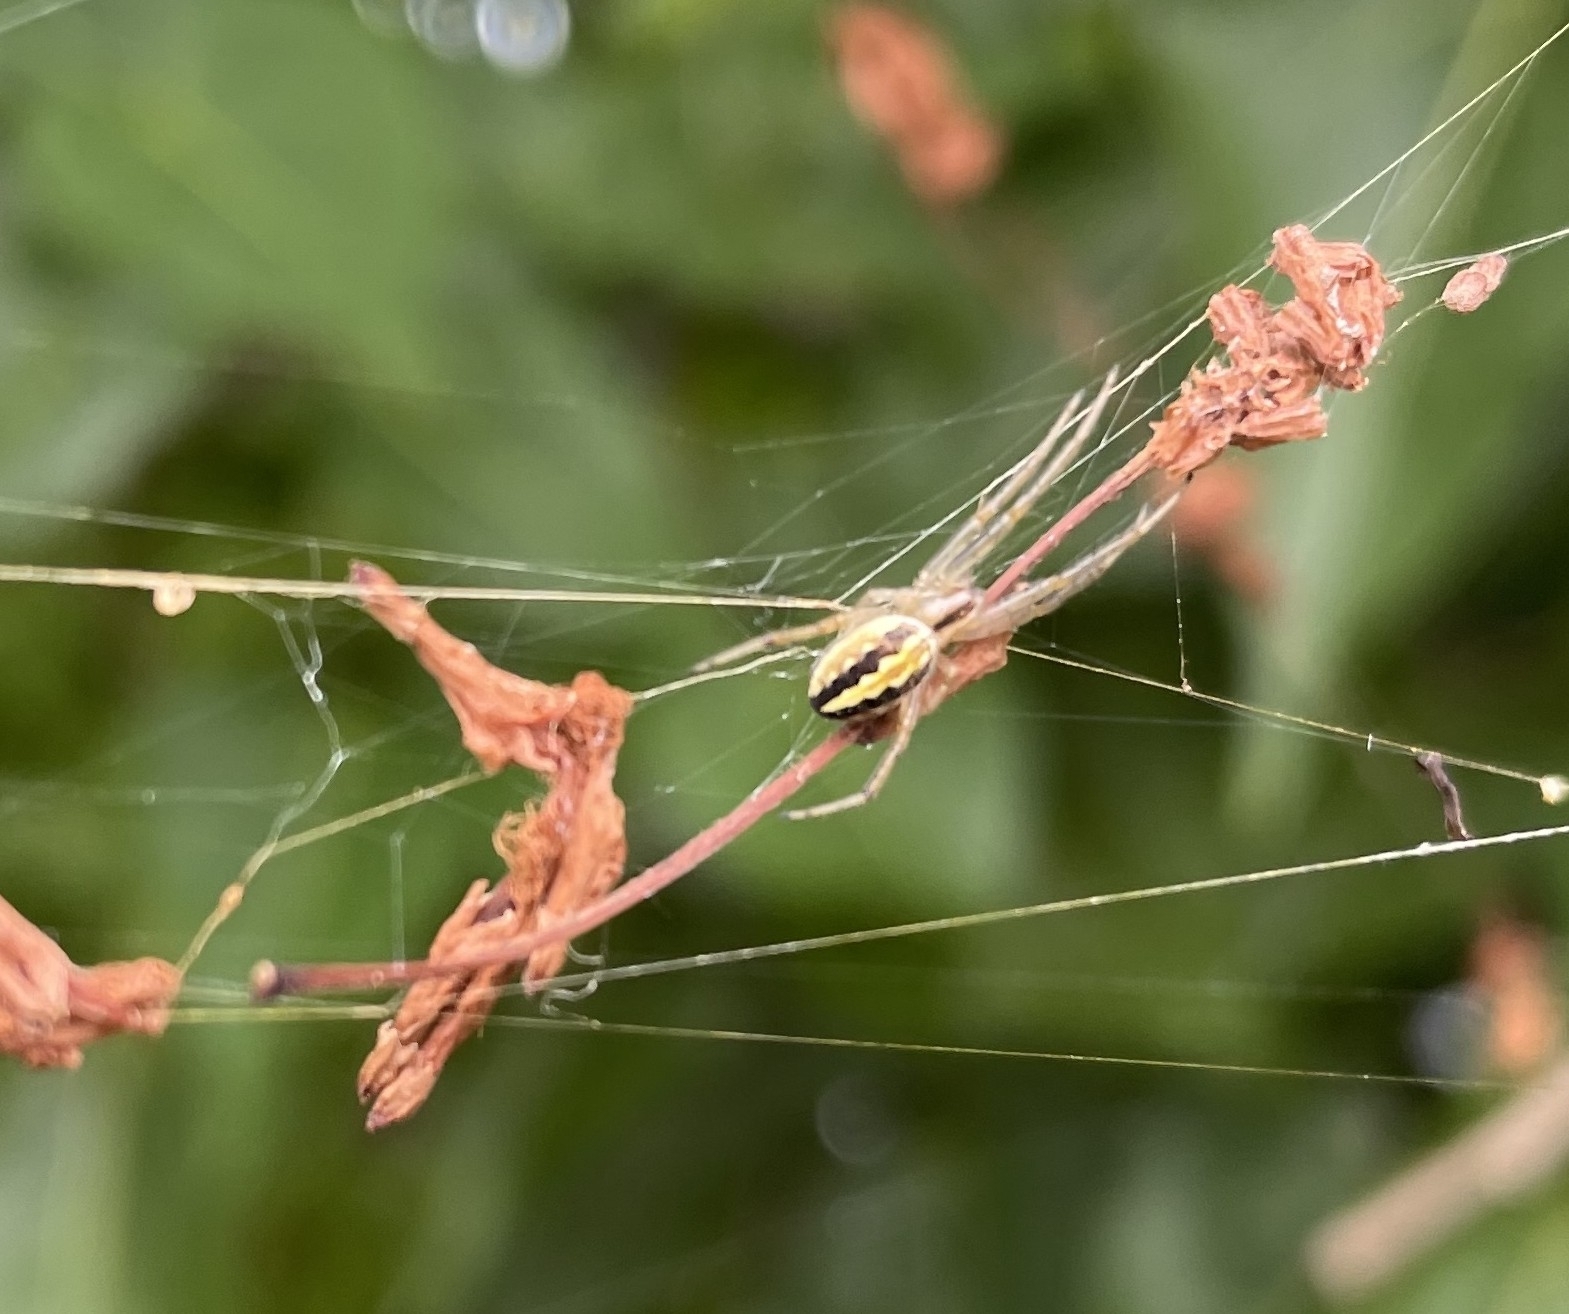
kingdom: Animalia
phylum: Arthropoda
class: Arachnida
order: Araneae
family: Araneidae
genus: Neoscona
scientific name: Neoscona moreli
